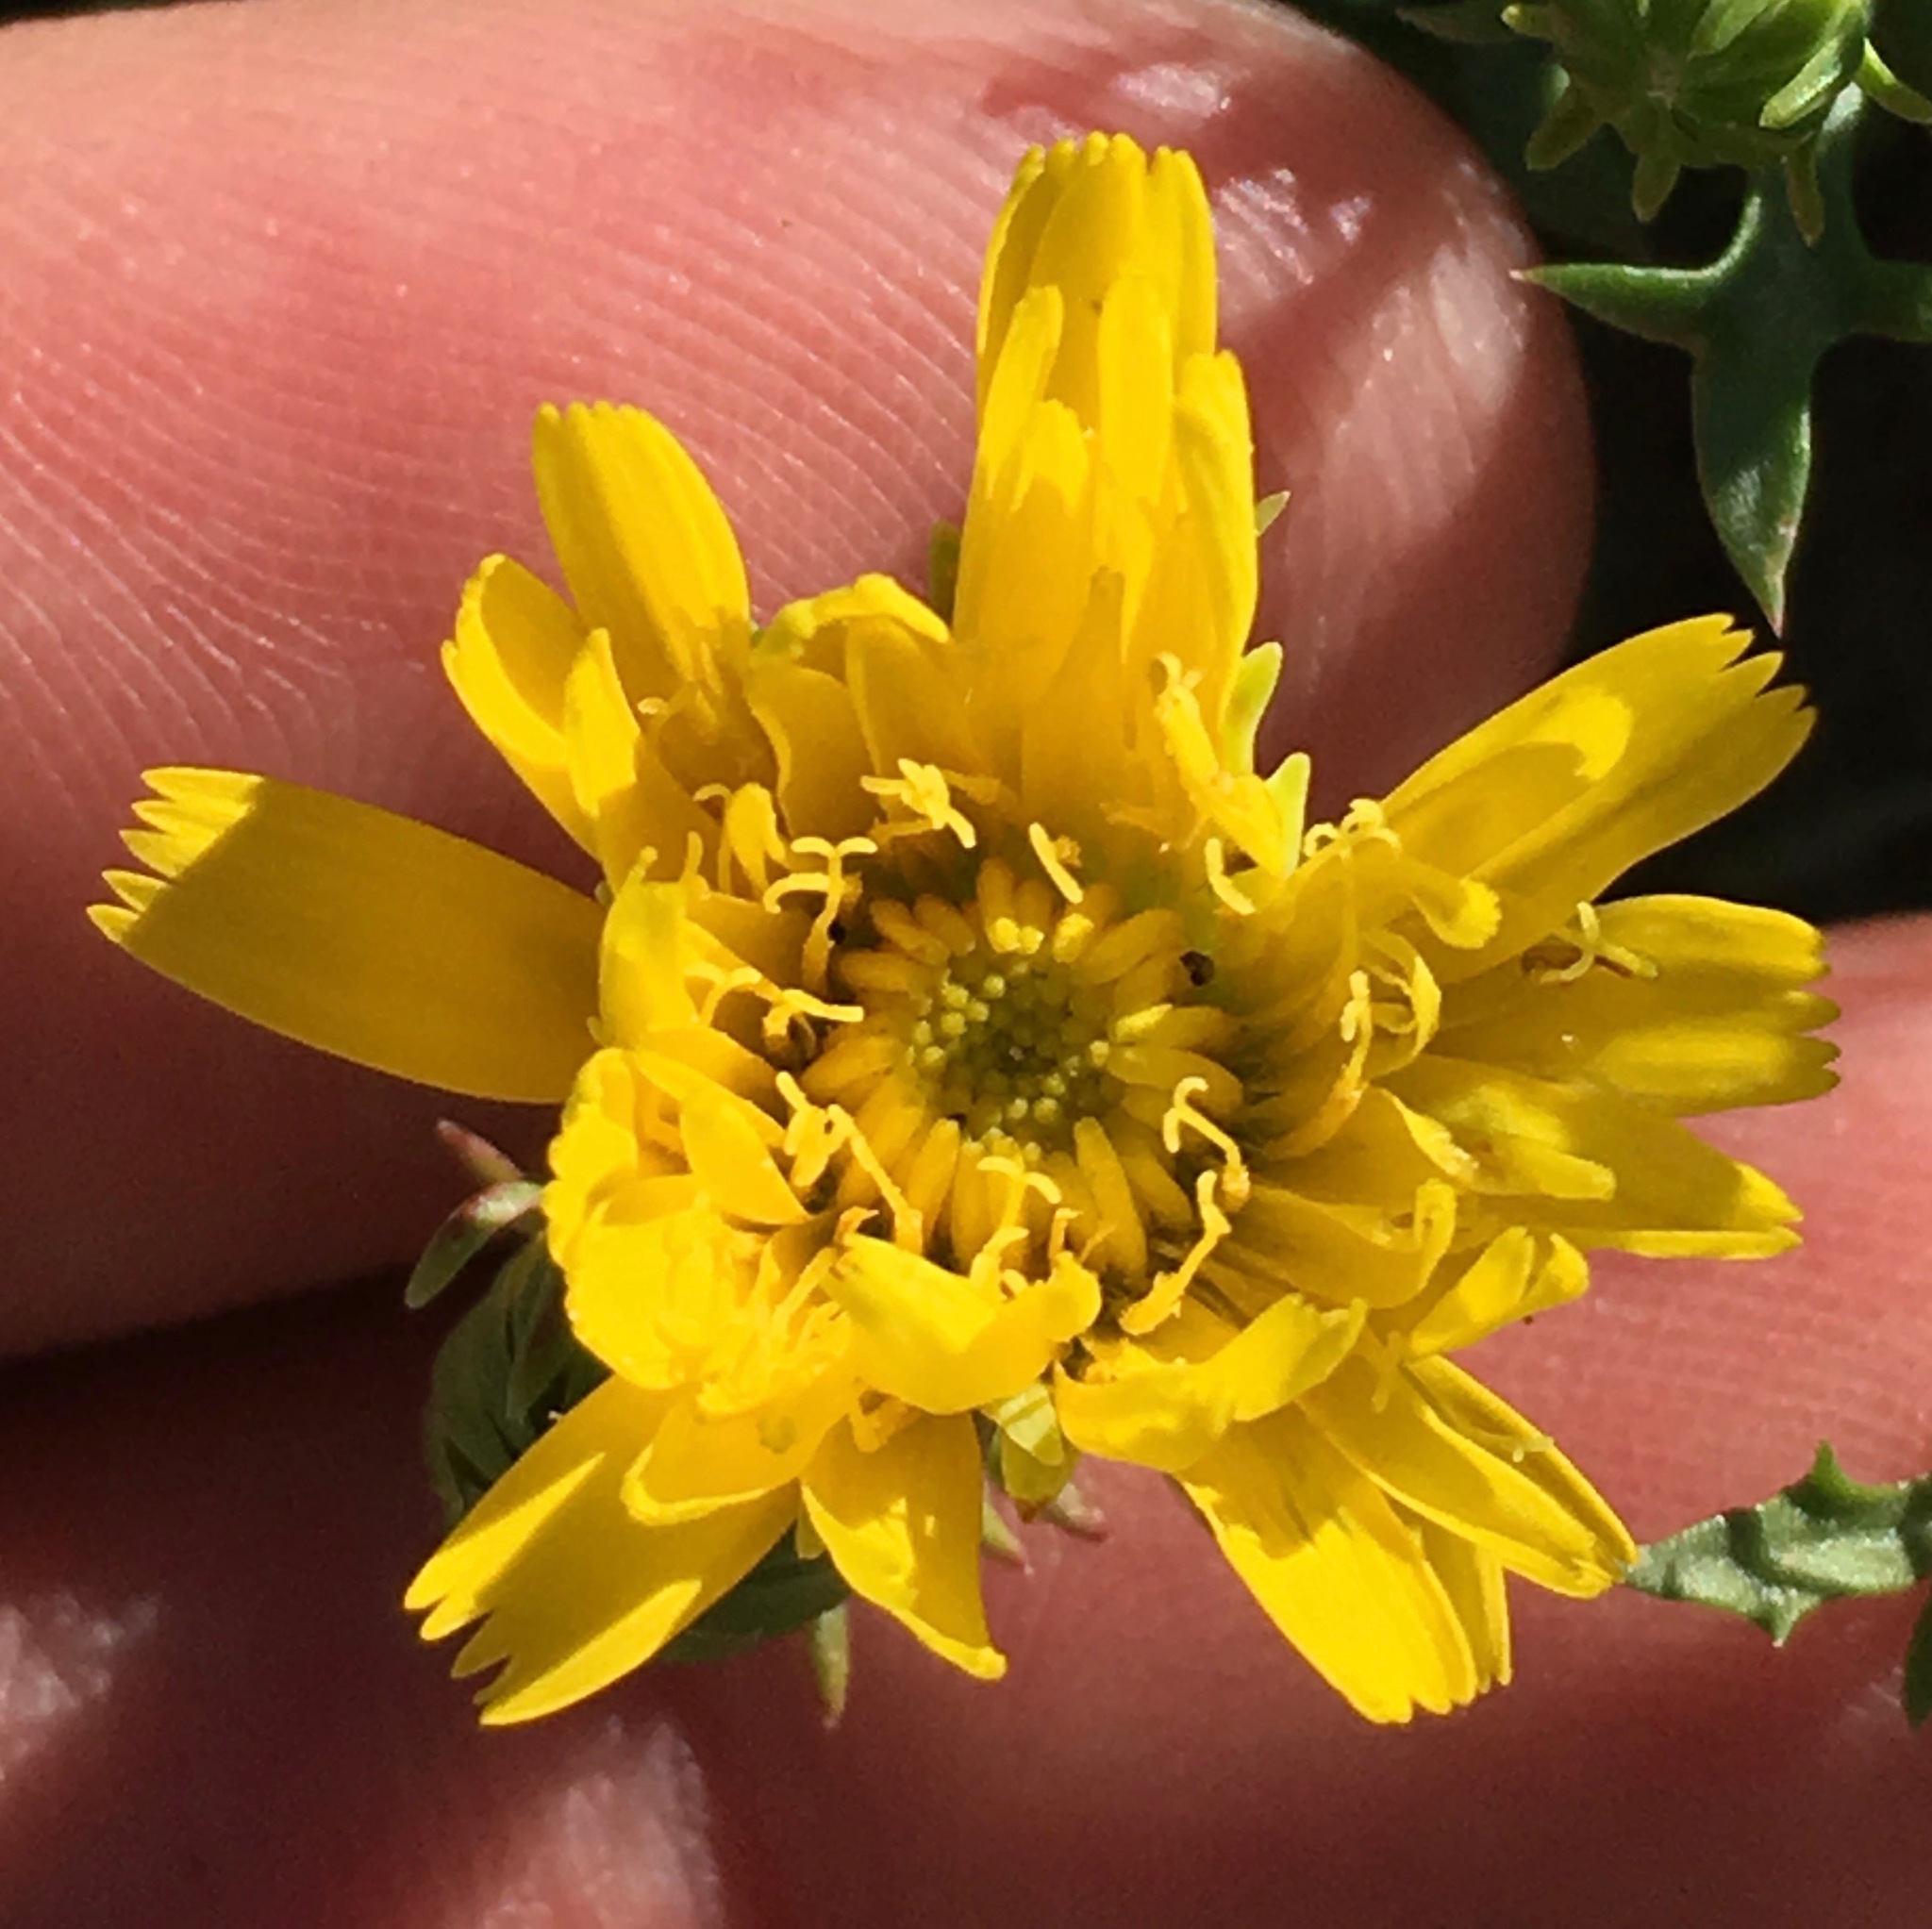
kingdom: Plantae
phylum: Tracheophyta
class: Magnoliopsida
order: Asterales
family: Asteraceae
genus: Malacothrix
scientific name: Malacothrix foliosa
